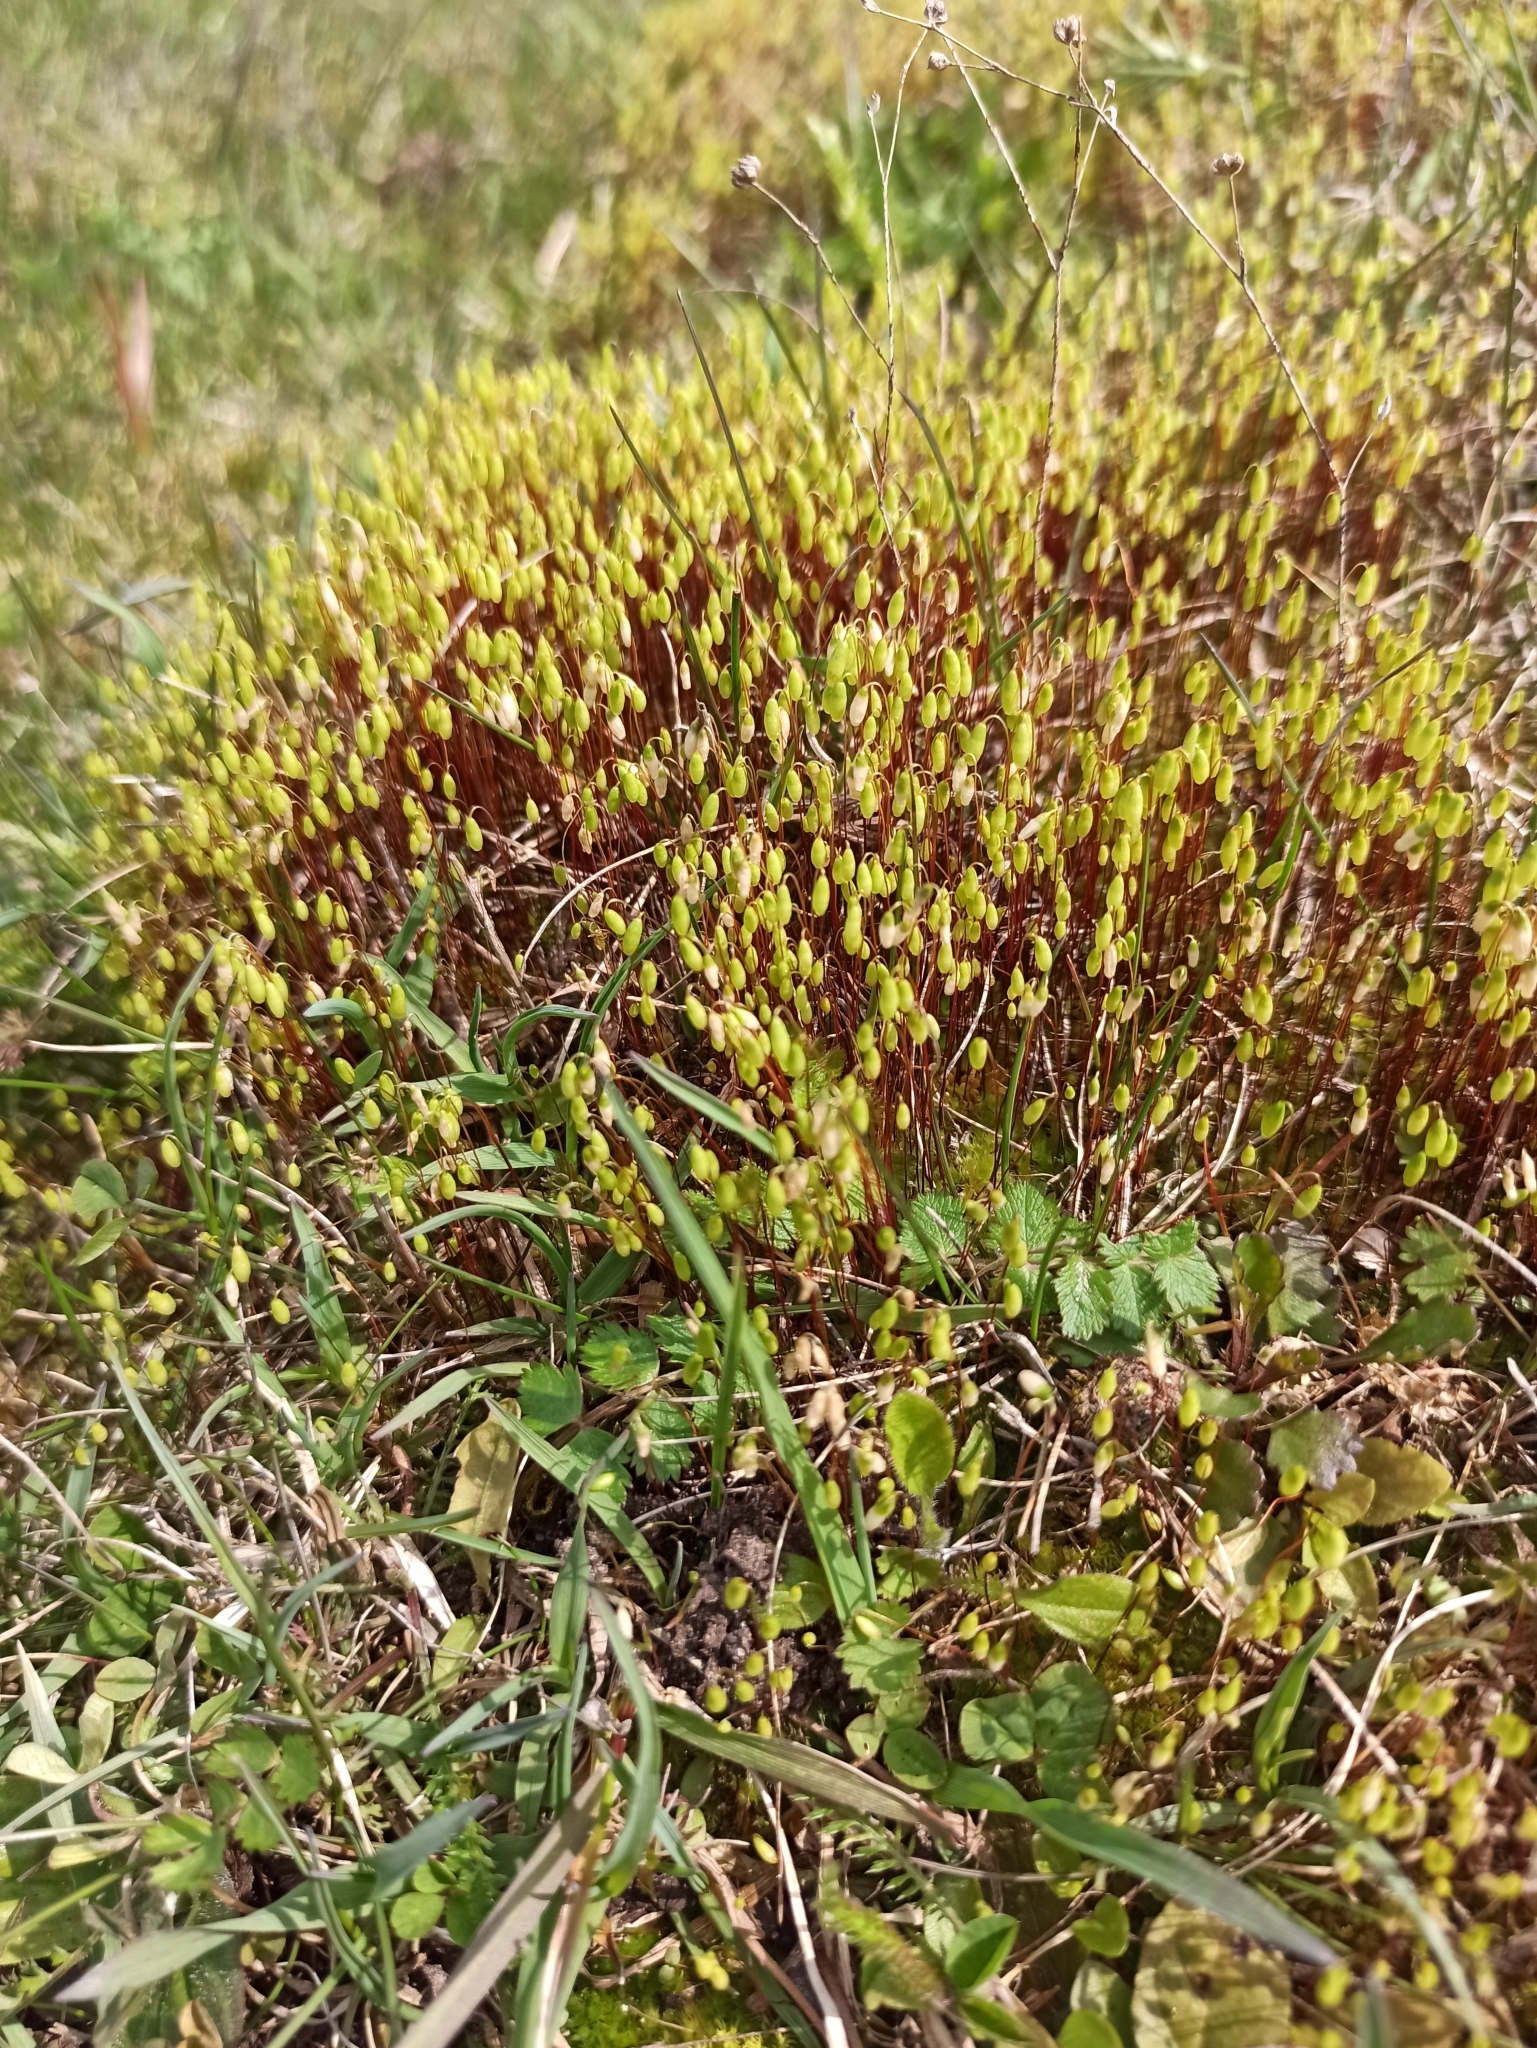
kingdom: Plantae
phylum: Bryophyta
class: Bryopsida
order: Bryales
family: Mniaceae
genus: Pohlia
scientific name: Pohlia nutans
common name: Nodding thread-moss
